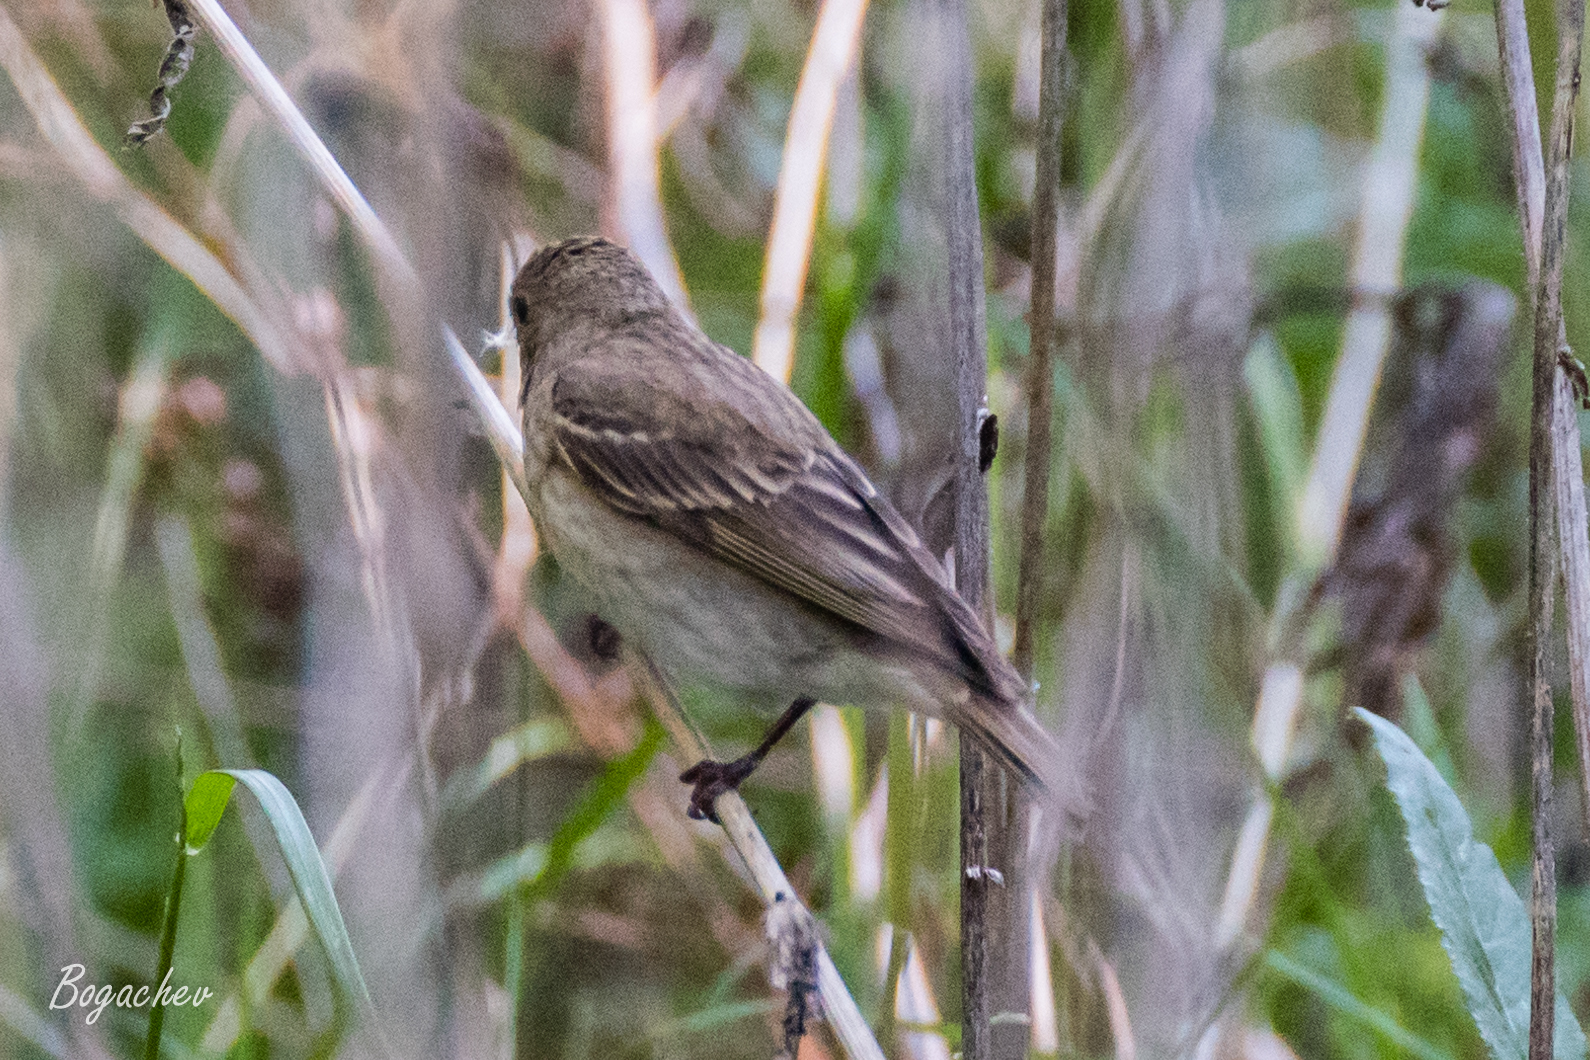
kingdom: Animalia
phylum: Chordata
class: Aves
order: Passeriformes
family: Fringillidae
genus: Carpodacus
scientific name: Carpodacus erythrinus
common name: Common rosefinch
